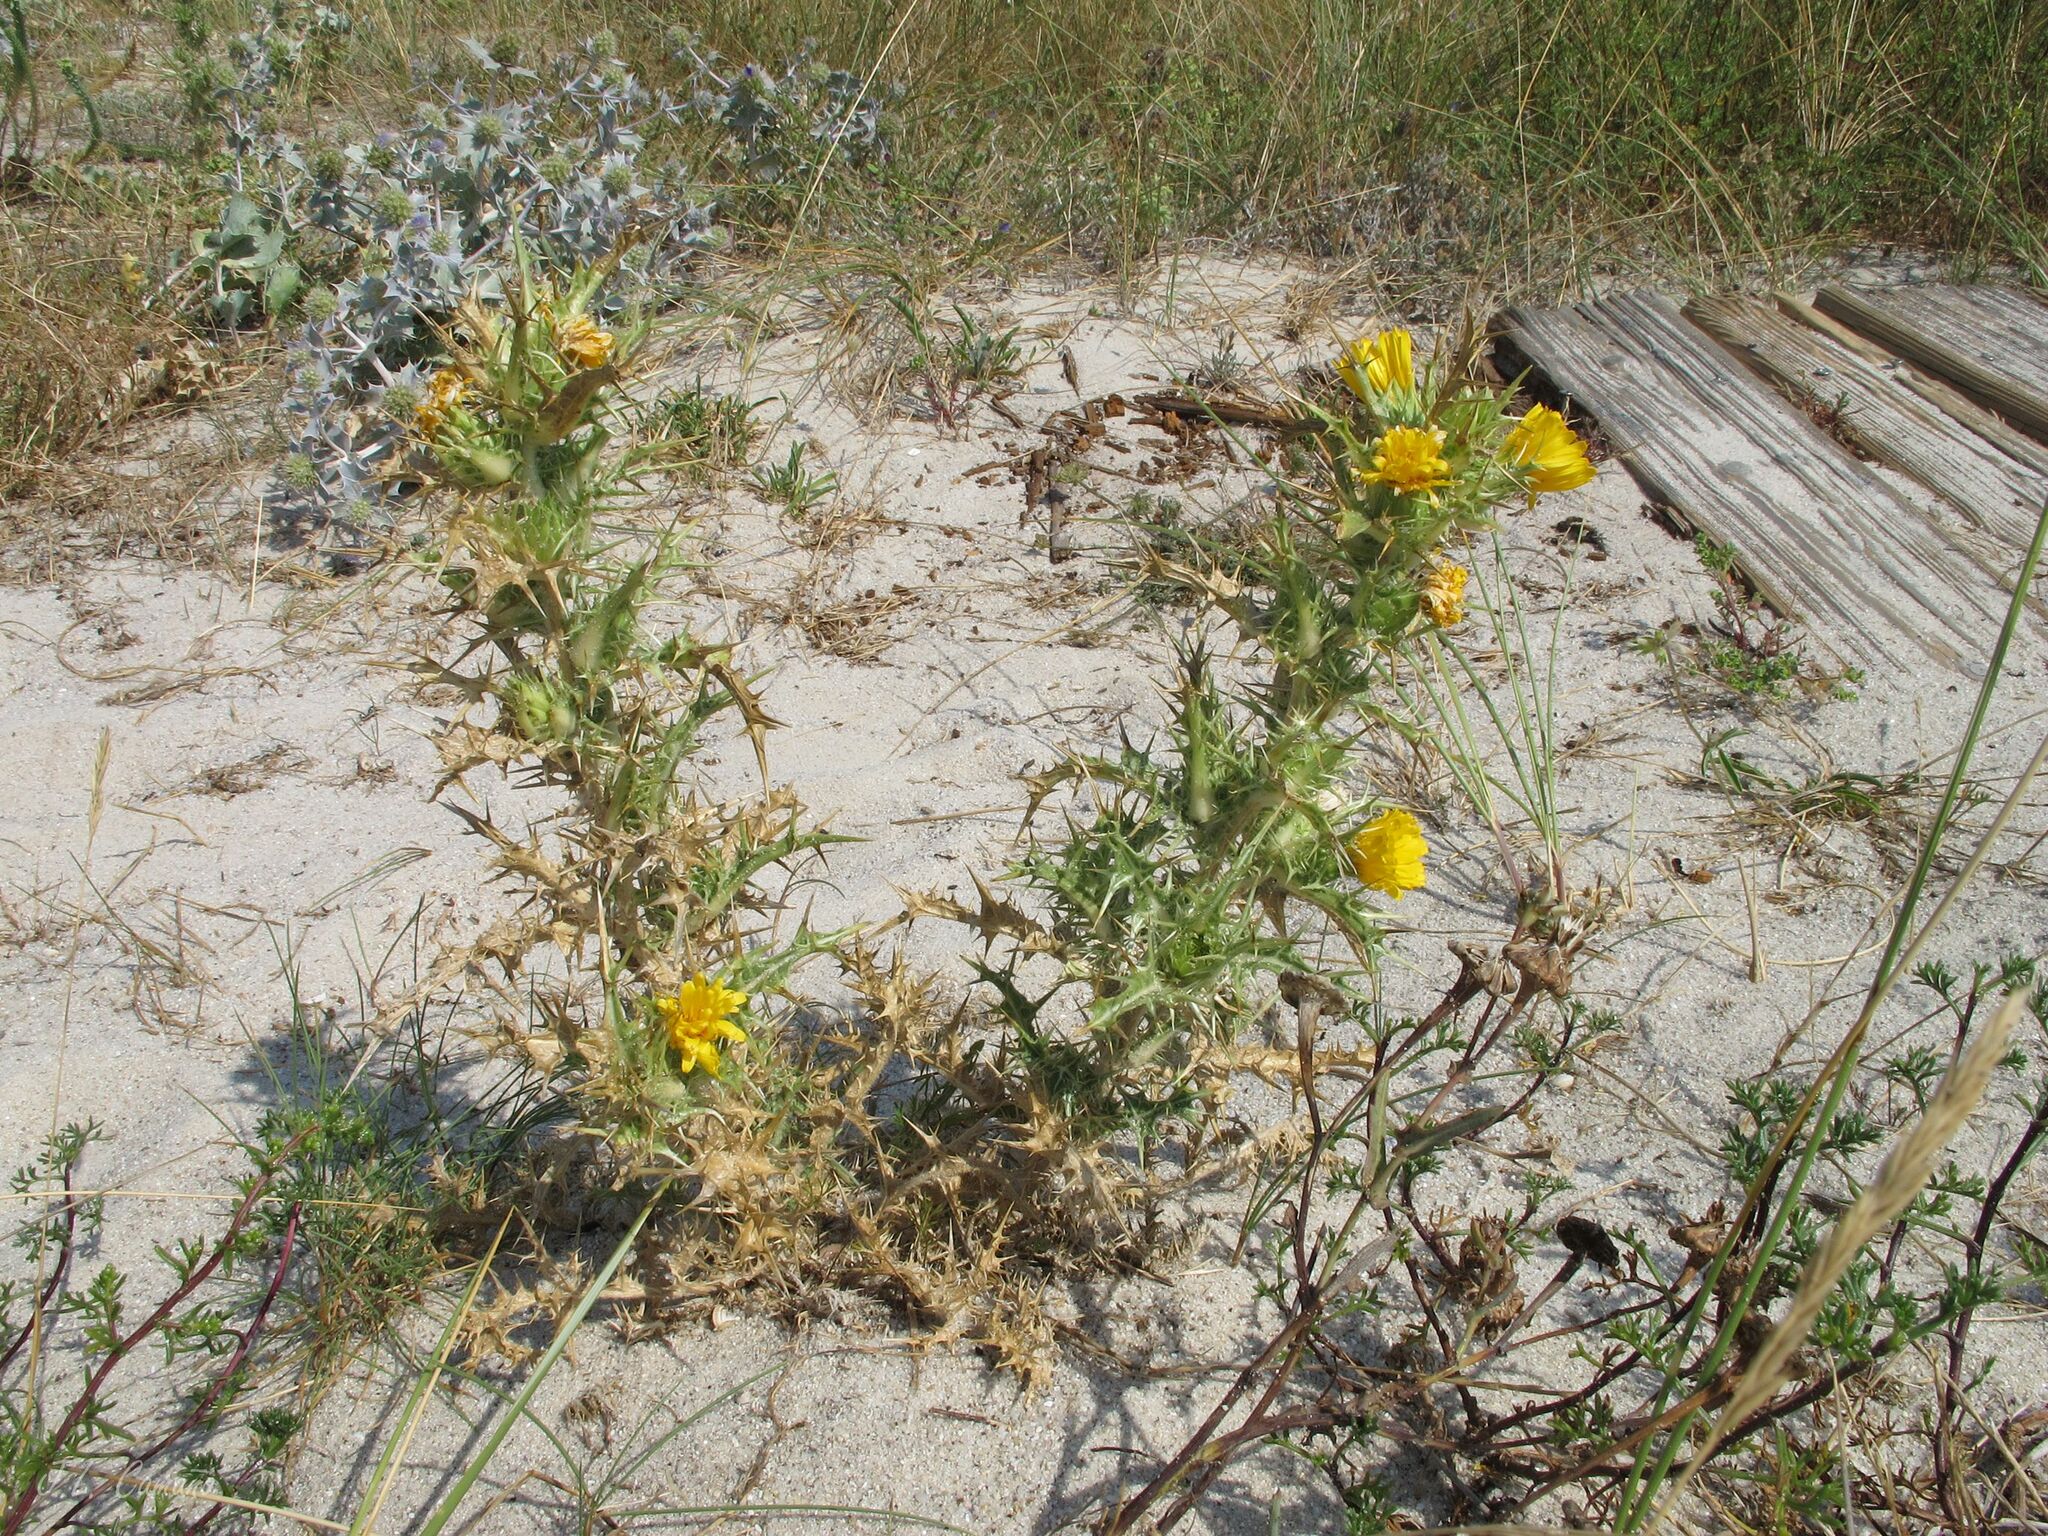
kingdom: Plantae
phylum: Tracheophyta
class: Magnoliopsida
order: Asterales
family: Asteraceae
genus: Scolymus
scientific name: Scolymus hispanicus
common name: Golden thistle
